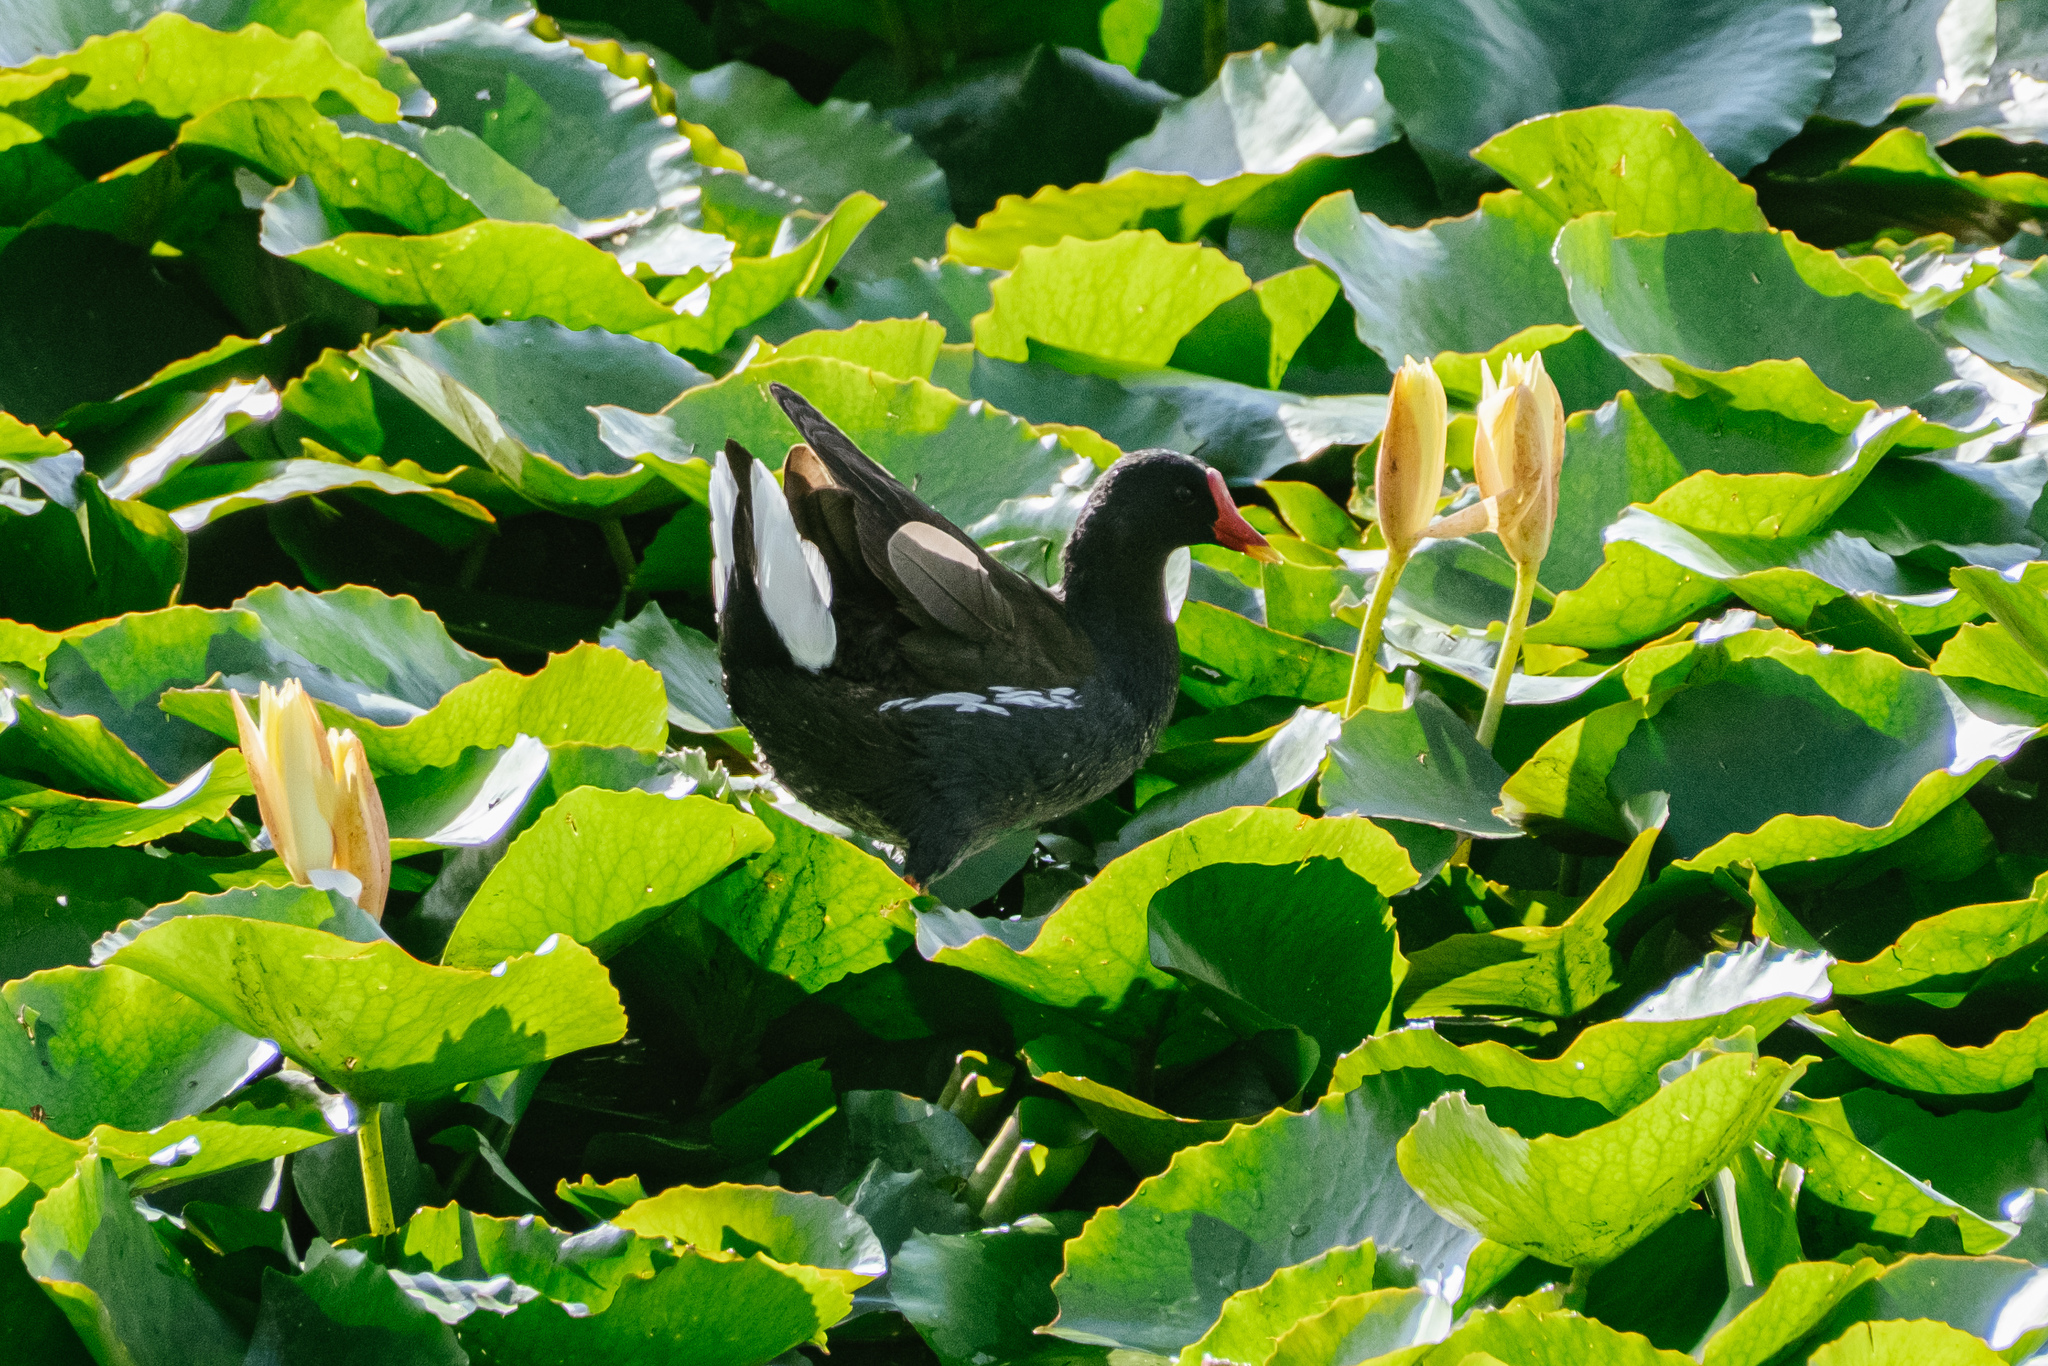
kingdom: Animalia
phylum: Chordata
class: Aves
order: Gruiformes
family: Rallidae
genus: Gallinula
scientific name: Gallinula chloropus
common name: Common moorhen
